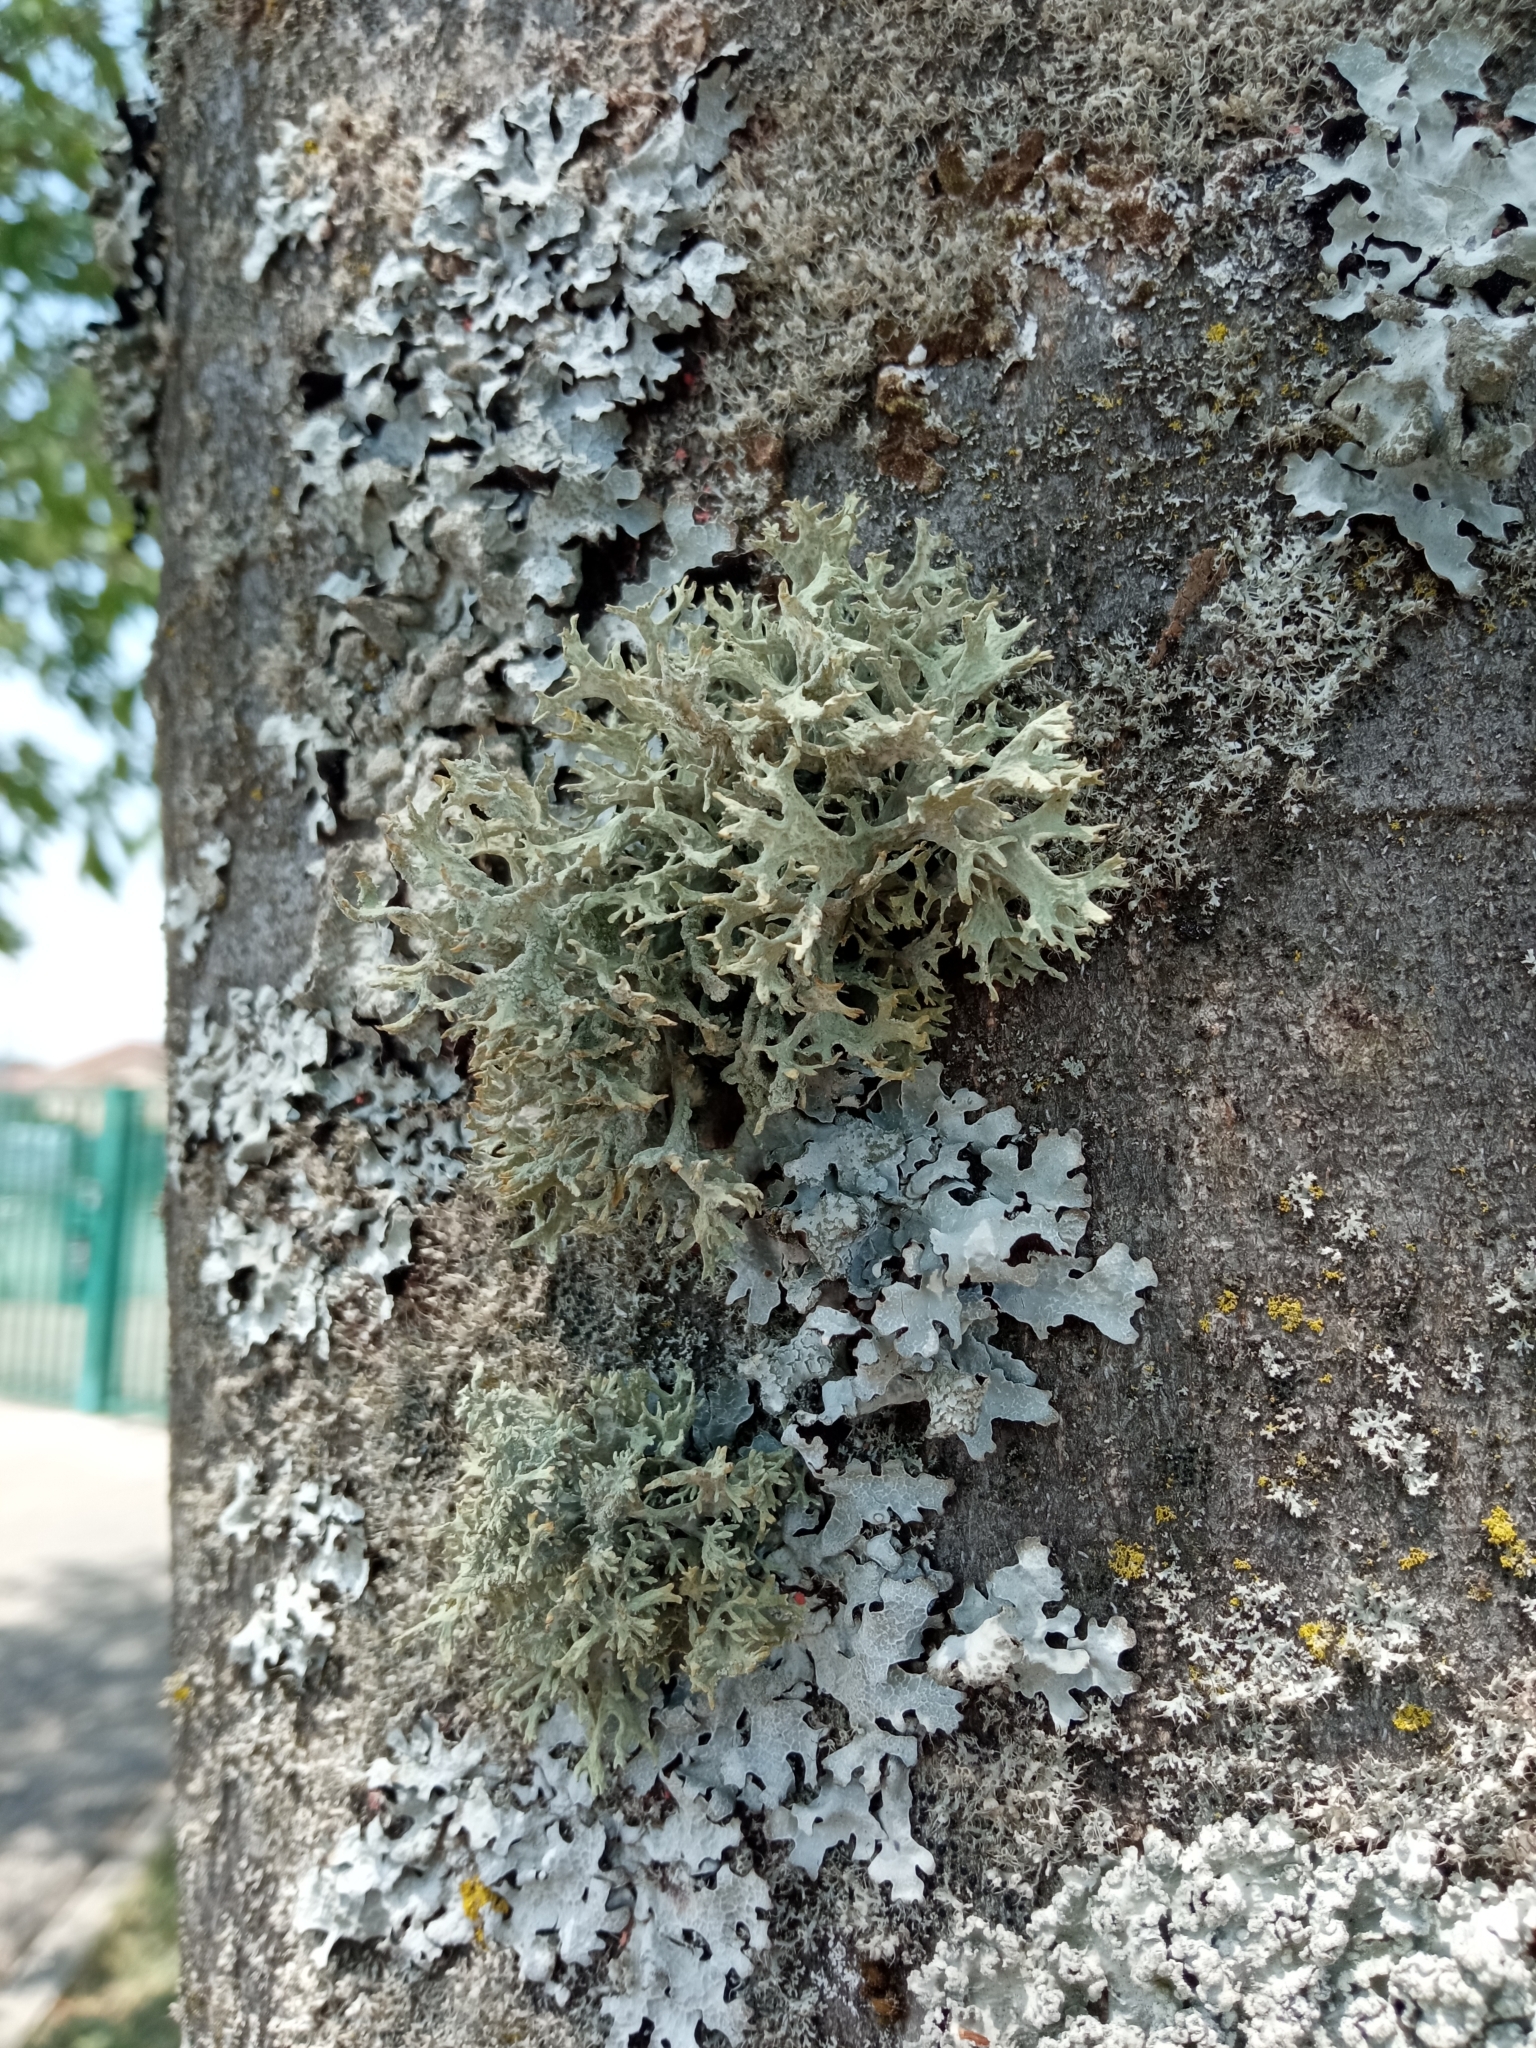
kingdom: Fungi
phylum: Ascomycota
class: Lecanoromycetes
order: Lecanorales
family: Parmeliaceae
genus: Evernia
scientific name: Evernia prunastri
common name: Oak moss
